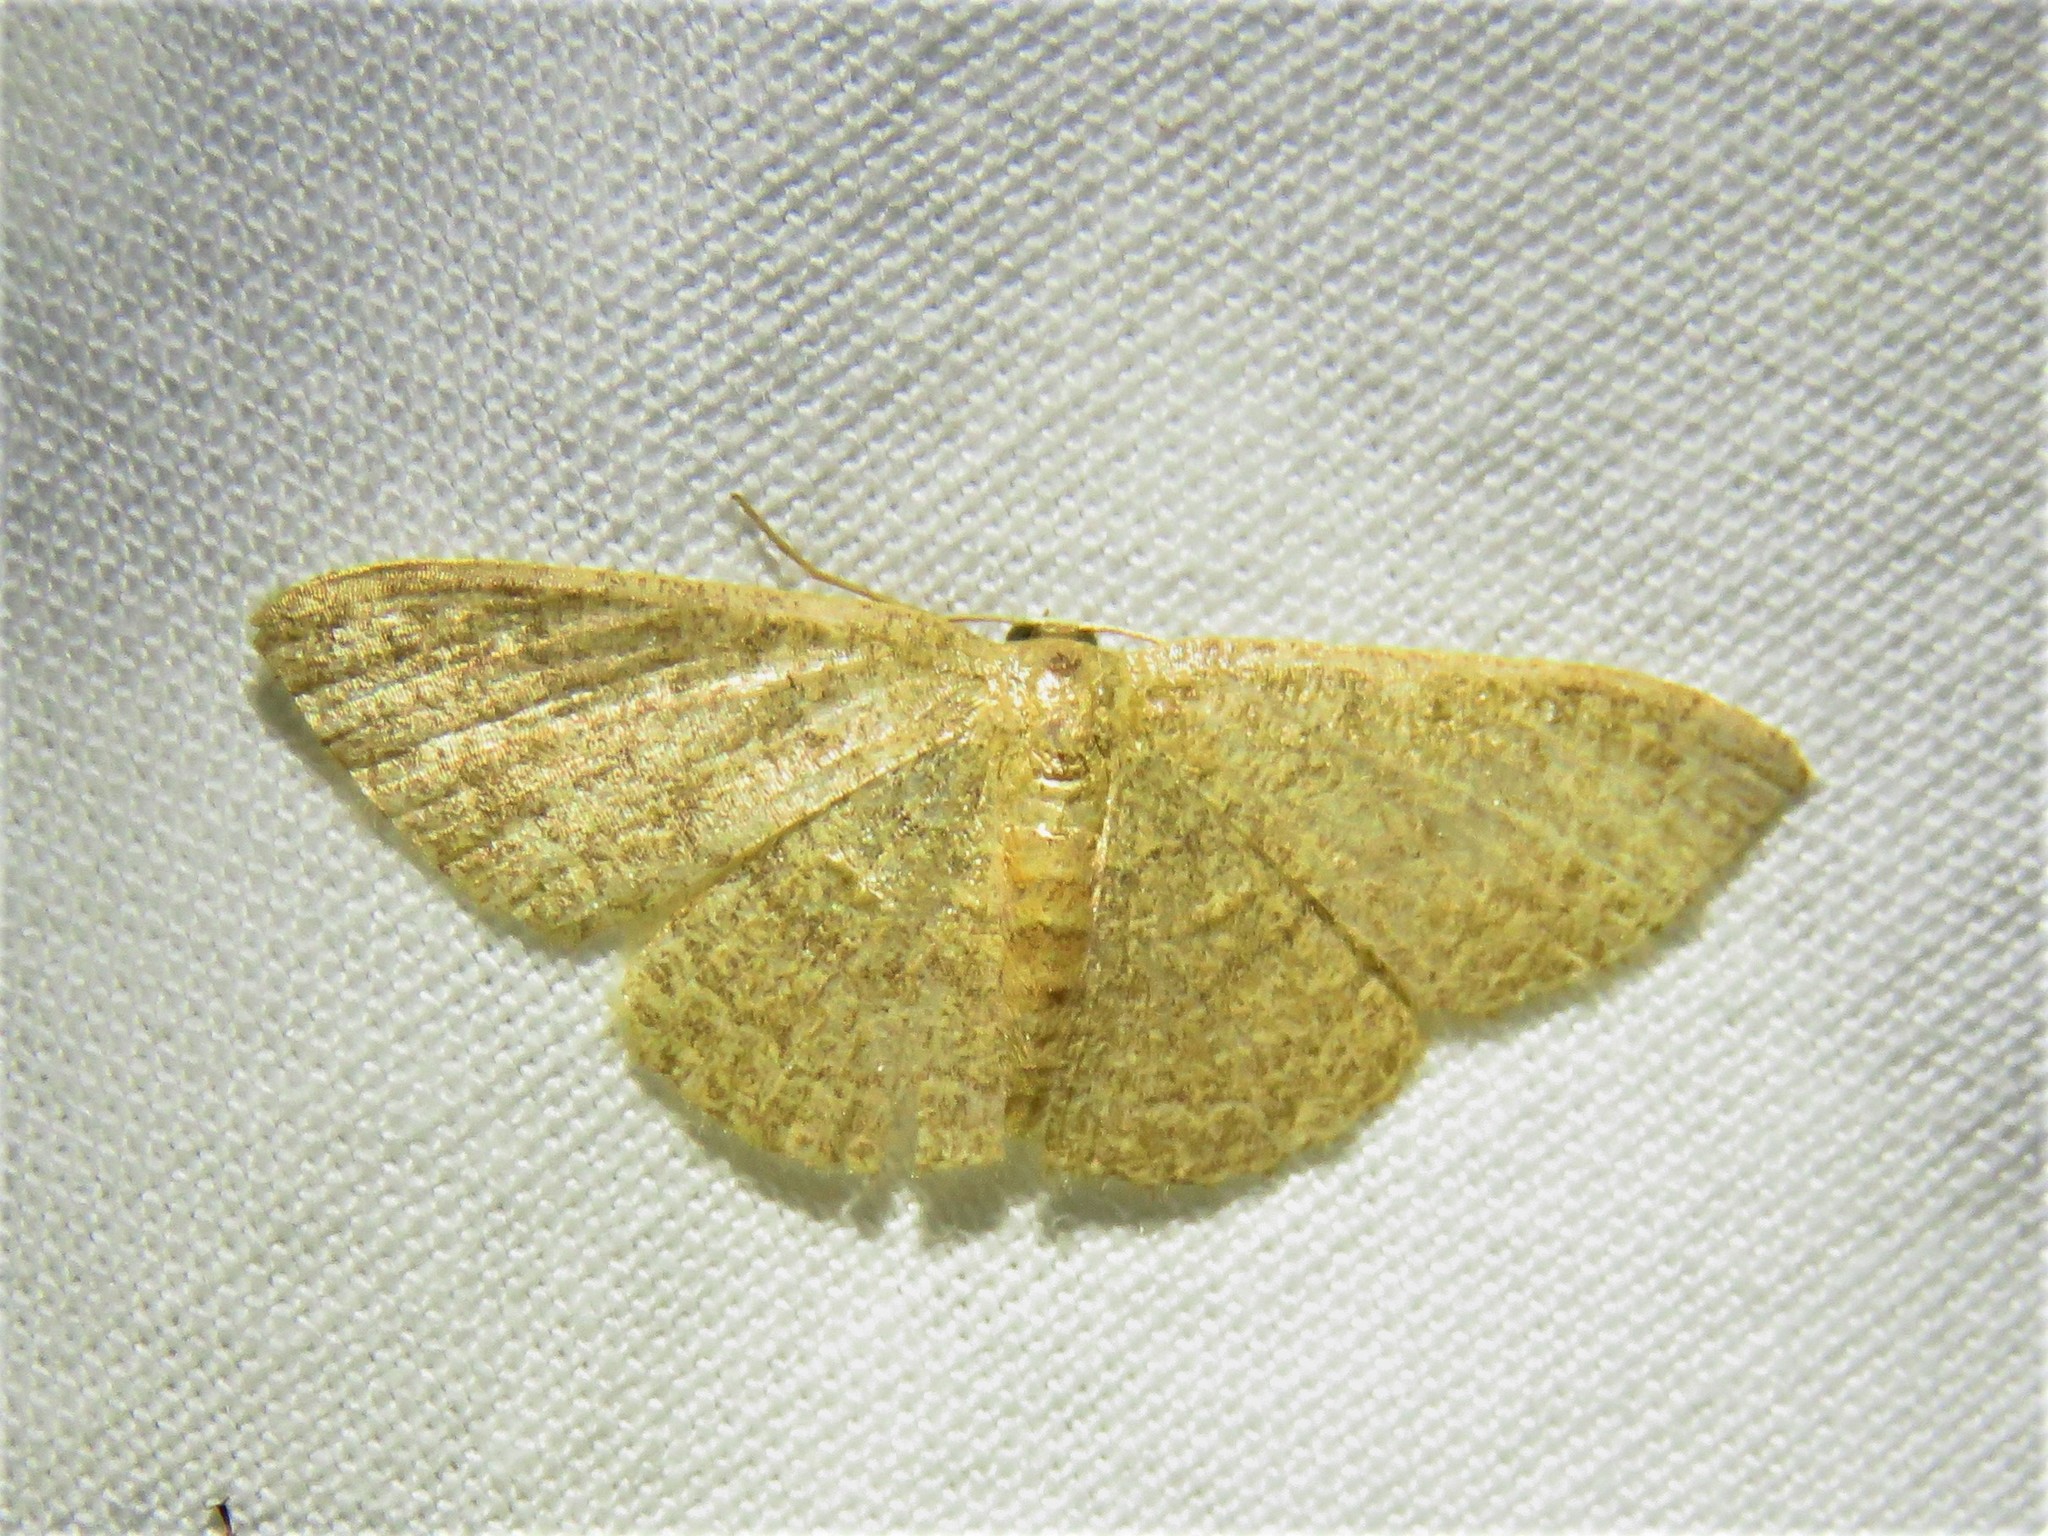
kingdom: Animalia
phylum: Arthropoda
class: Insecta
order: Lepidoptera
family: Geometridae
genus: Pleuroprucha
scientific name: Pleuroprucha insulsaria
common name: Common tan wave
